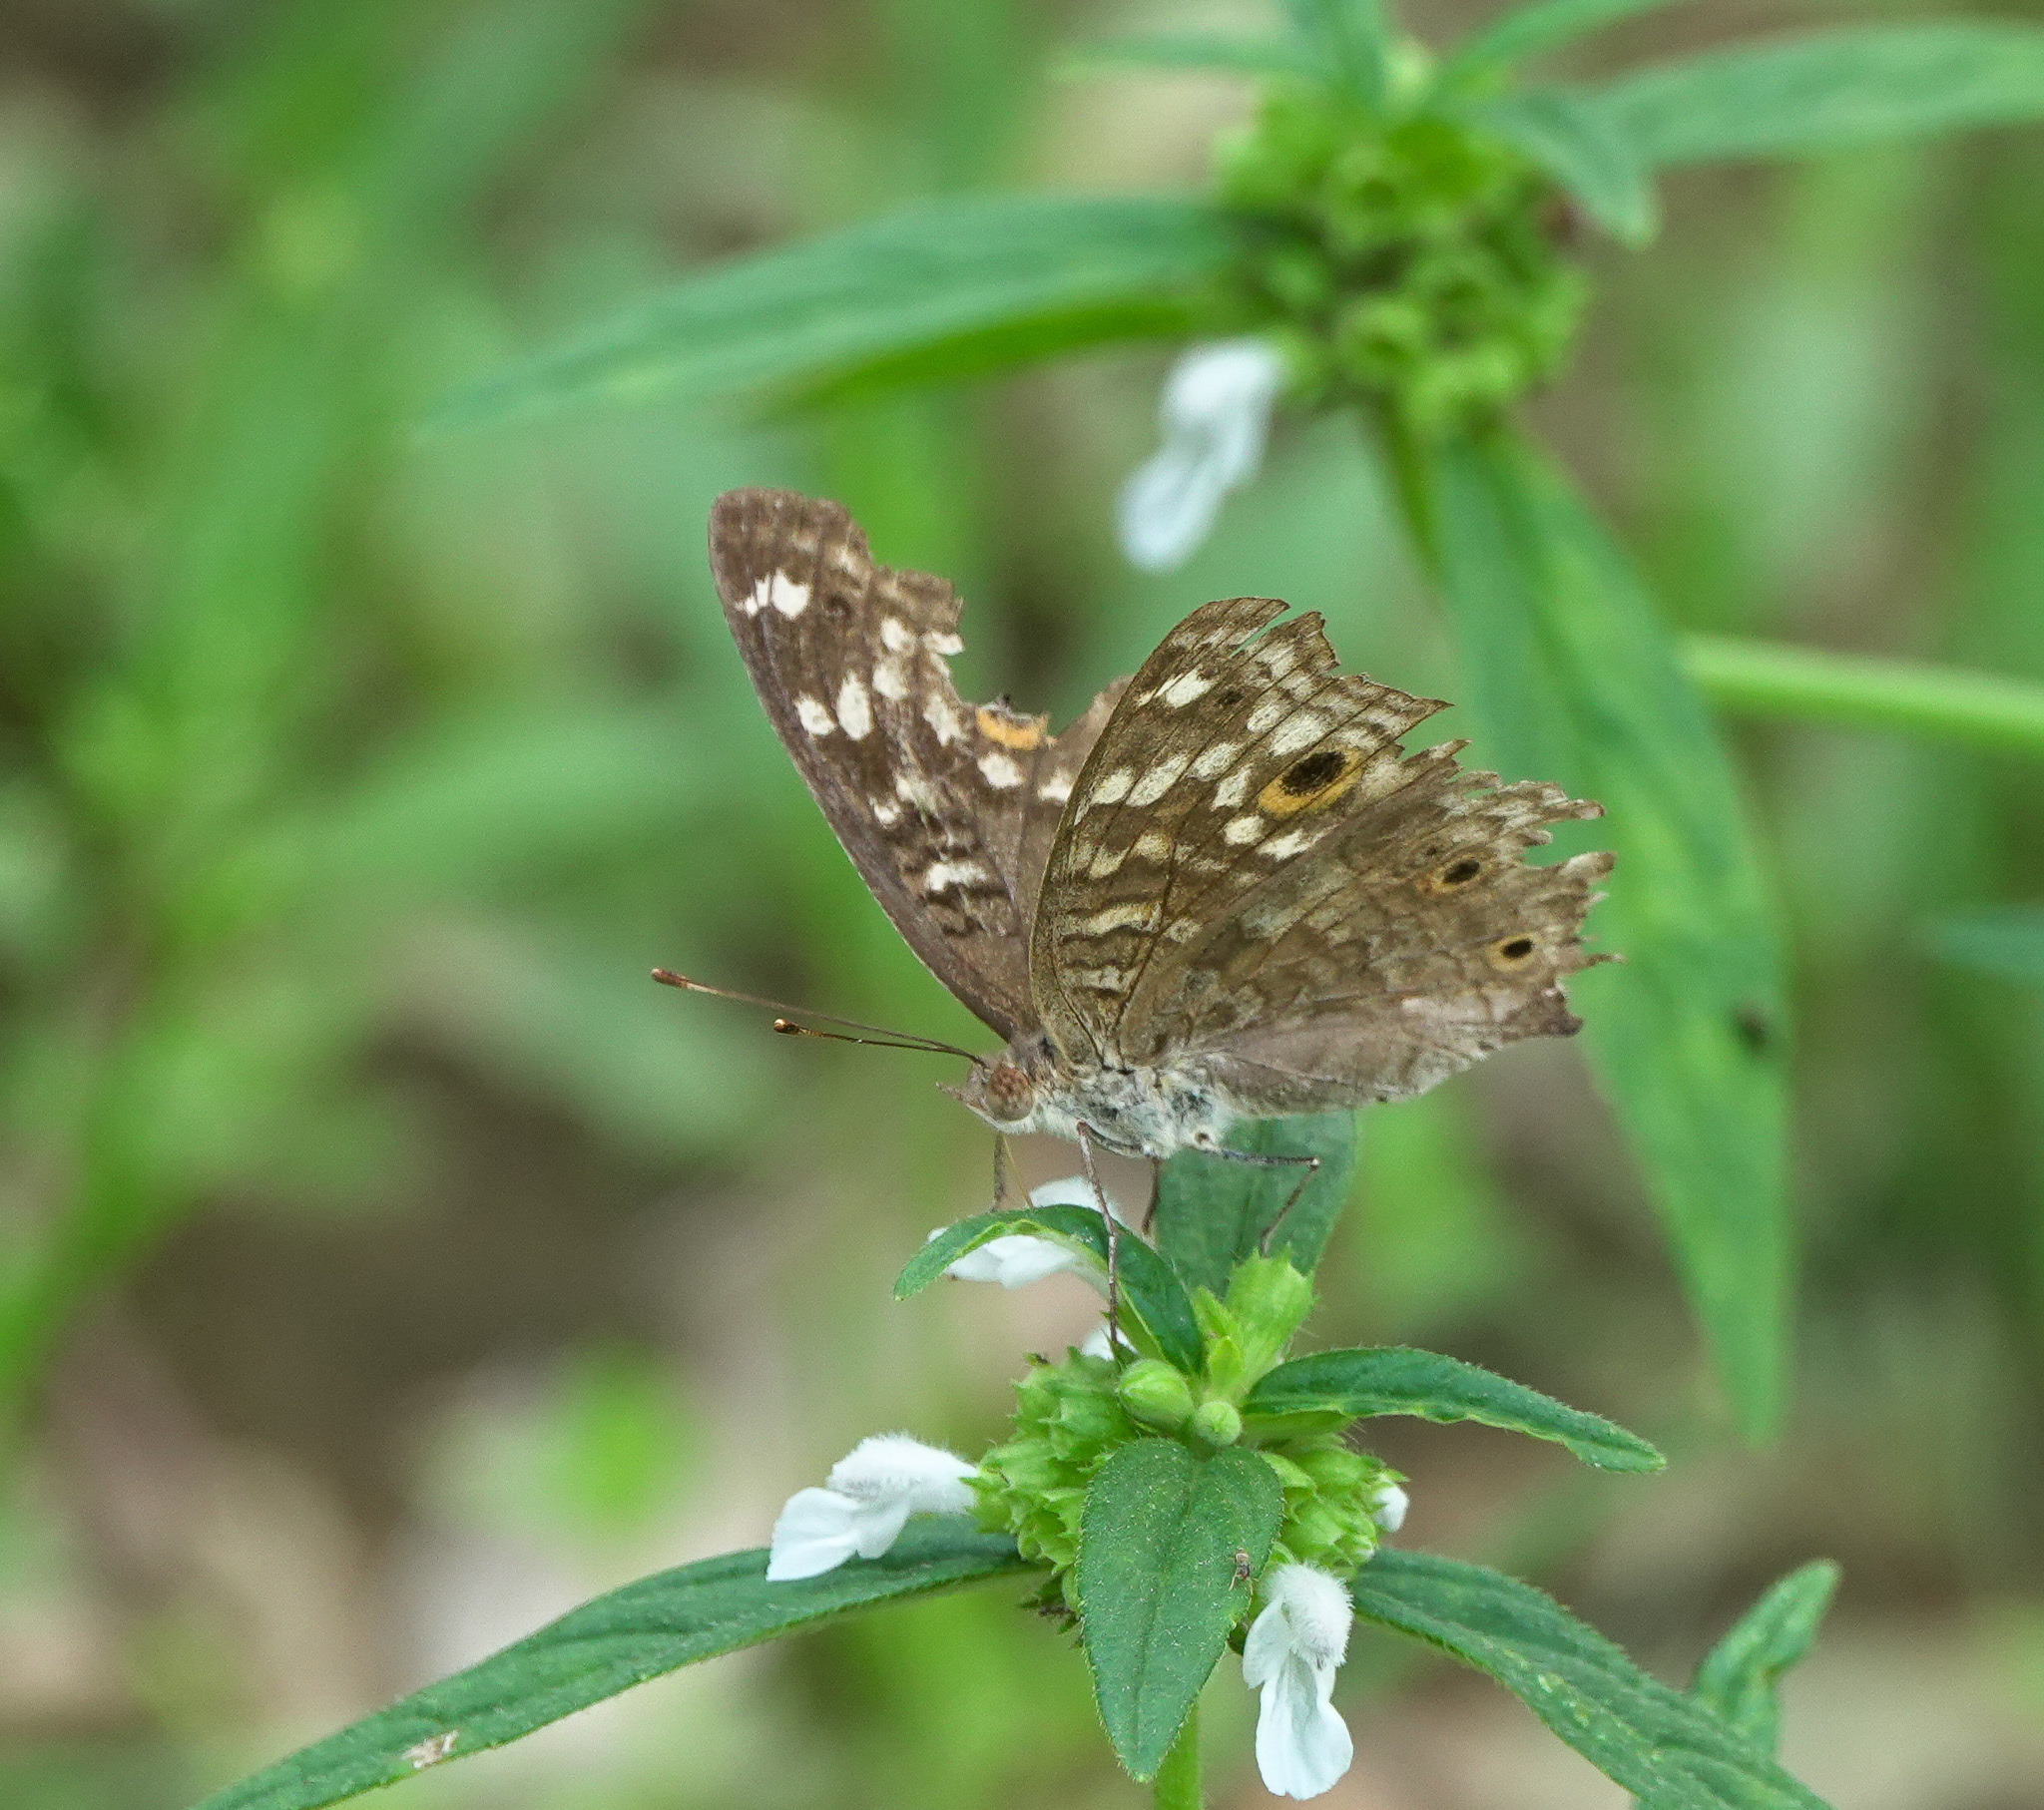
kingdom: Animalia
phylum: Arthropoda
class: Insecta
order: Lepidoptera
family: Nymphalidae
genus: Junonia
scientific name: Junonia lemonias
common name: Lemon pansy
